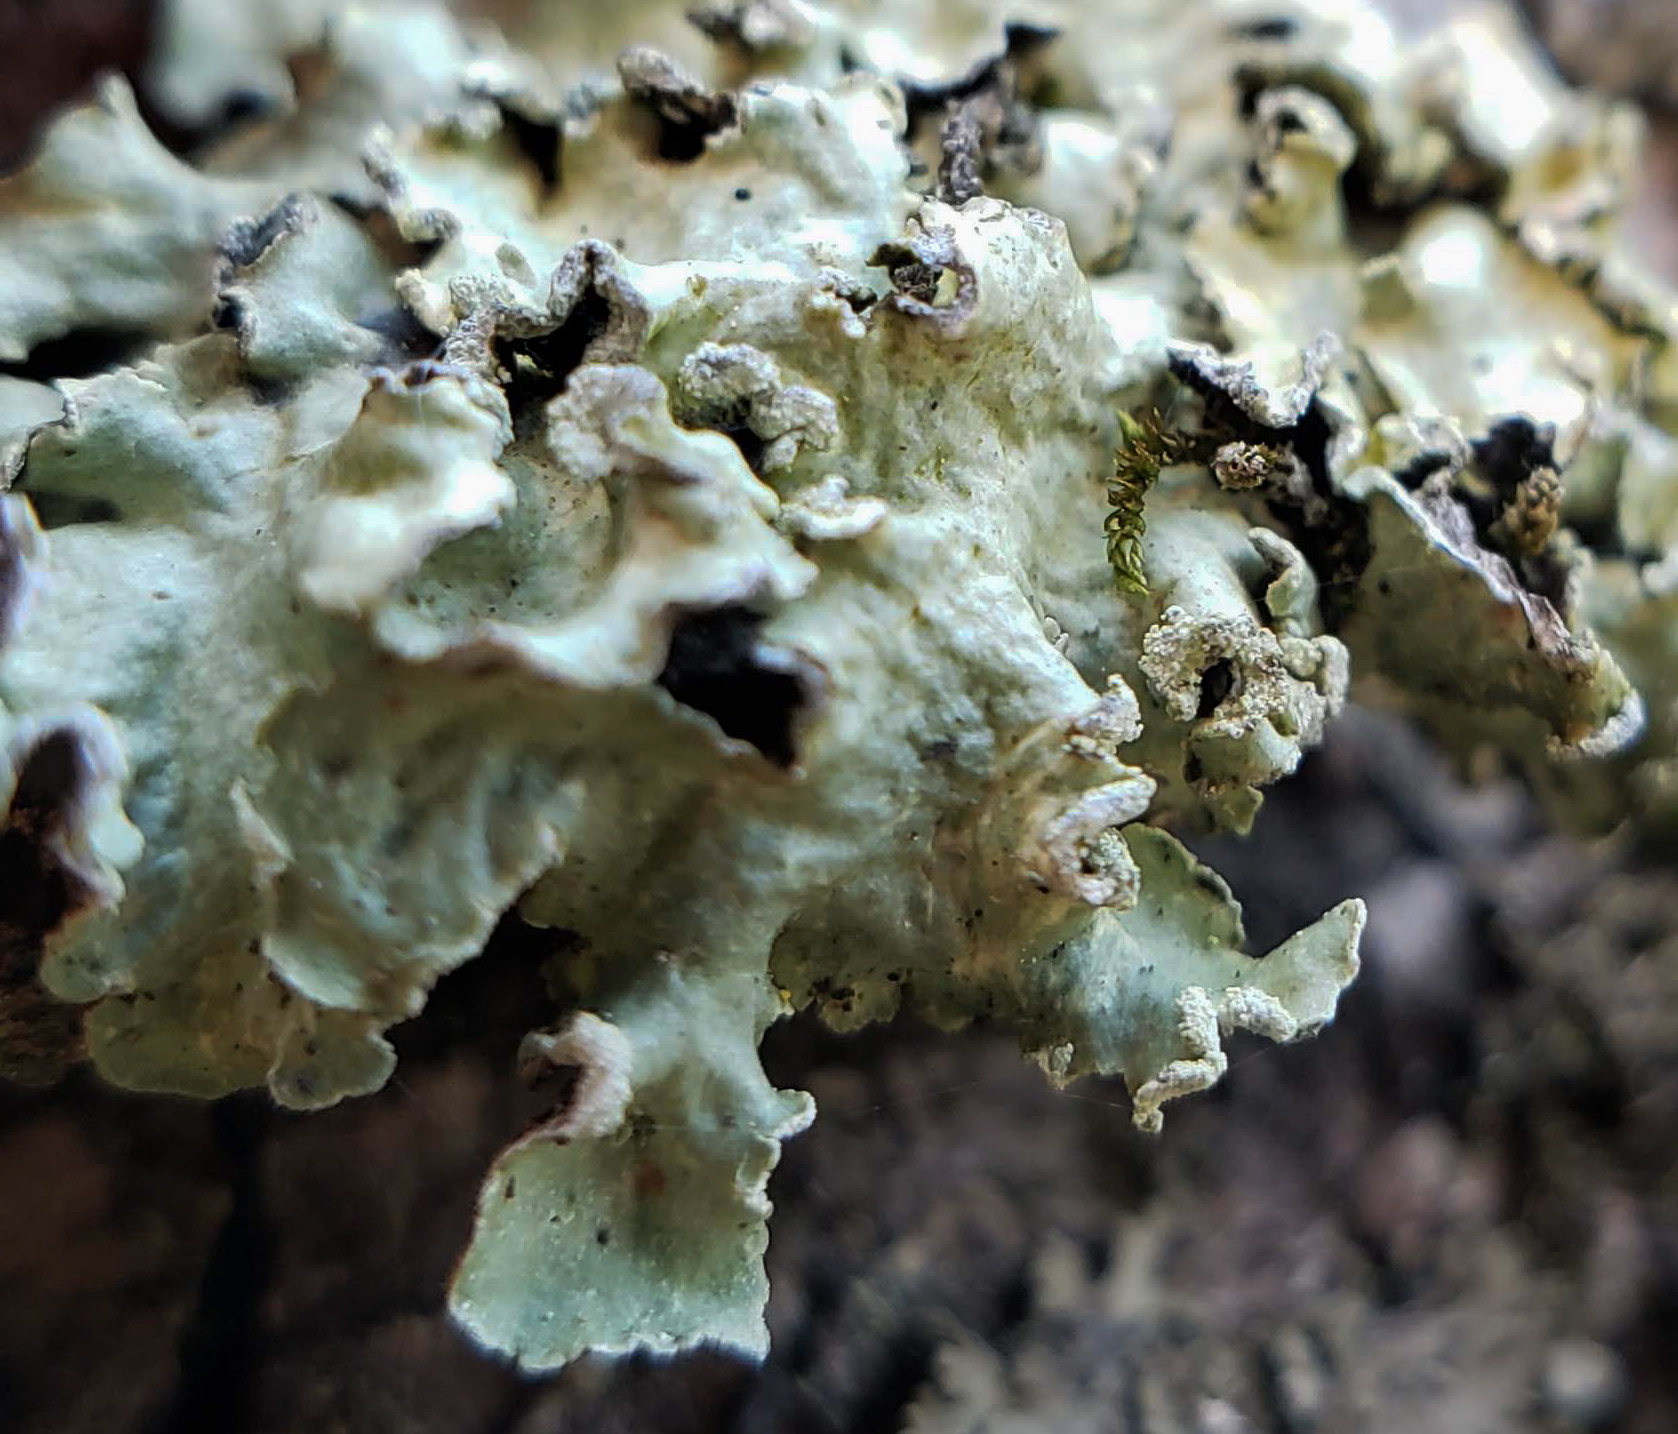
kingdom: Fungi
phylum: Ascomycota
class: Lecanoromycetes
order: Lecanorales
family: Parmeliaceae
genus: Flavopunctelia
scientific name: Flavopunctelia soredica
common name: Powder-edged speckled greenshield
